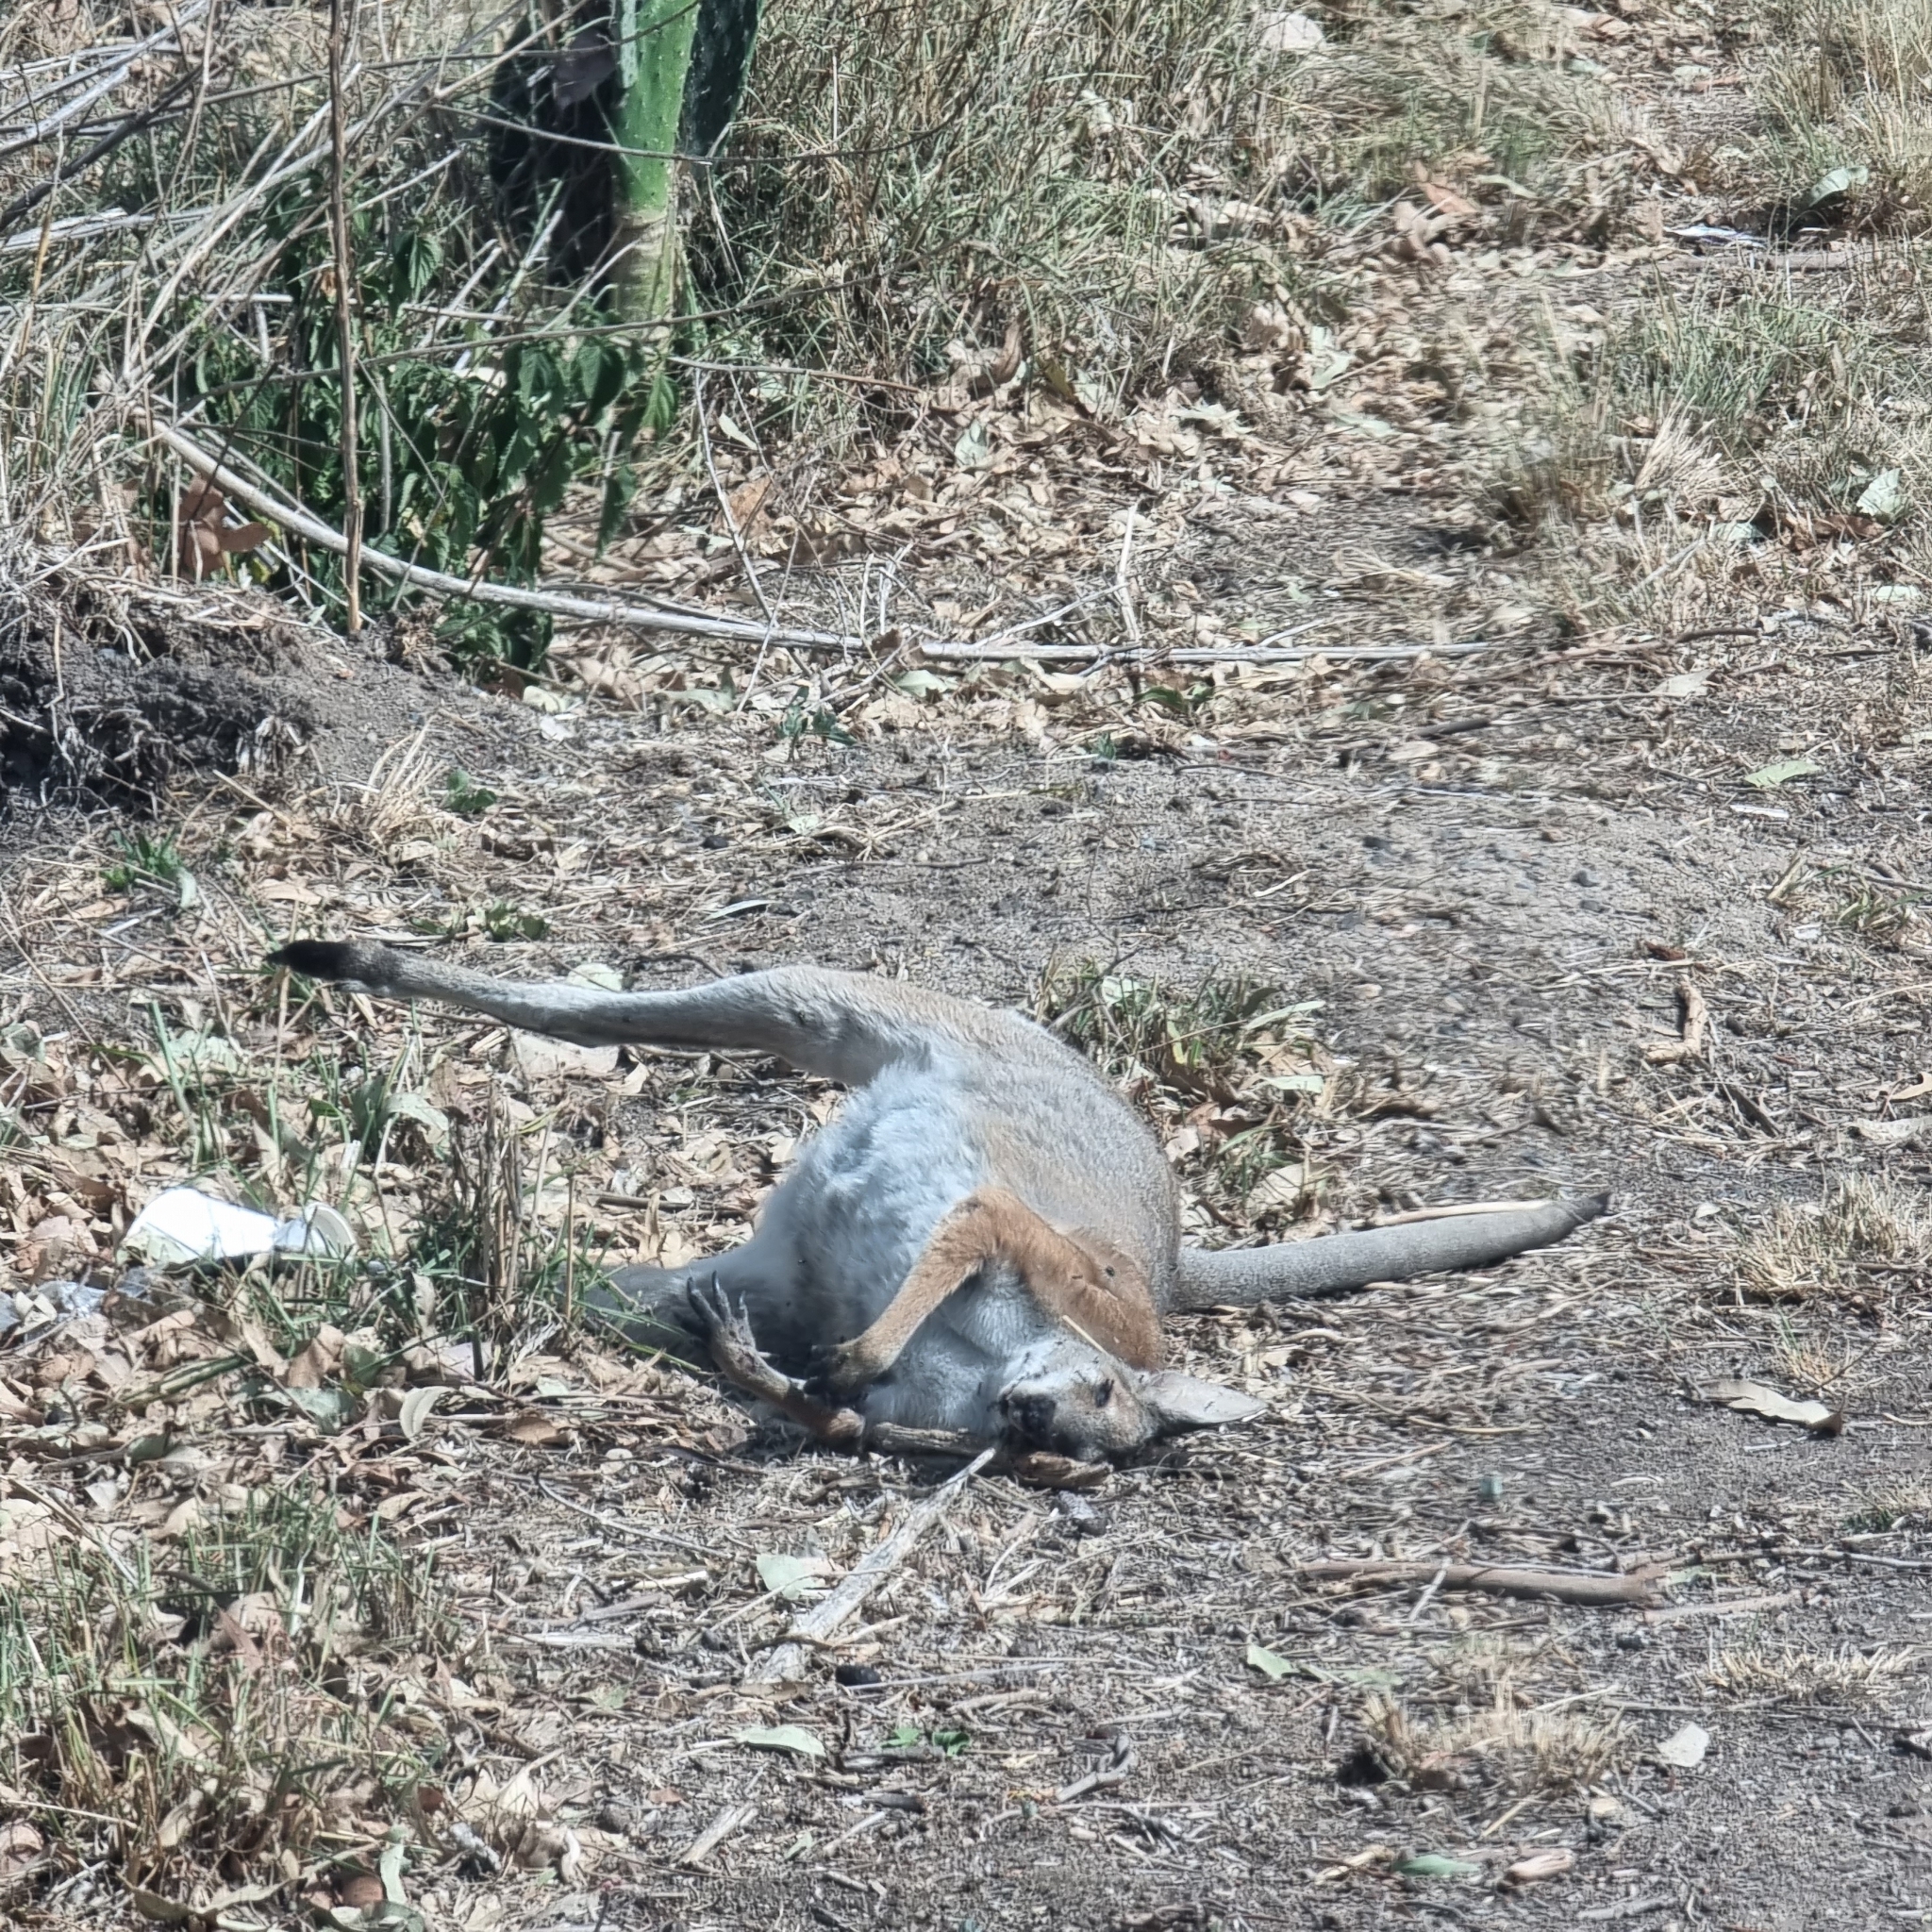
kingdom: Animalia
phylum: Chordata
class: Mammalia
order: Diprotodontia
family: Macropodidae
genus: Notamacropus
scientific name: Notamacropus rufogriseus
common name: Red-necked wallaby
